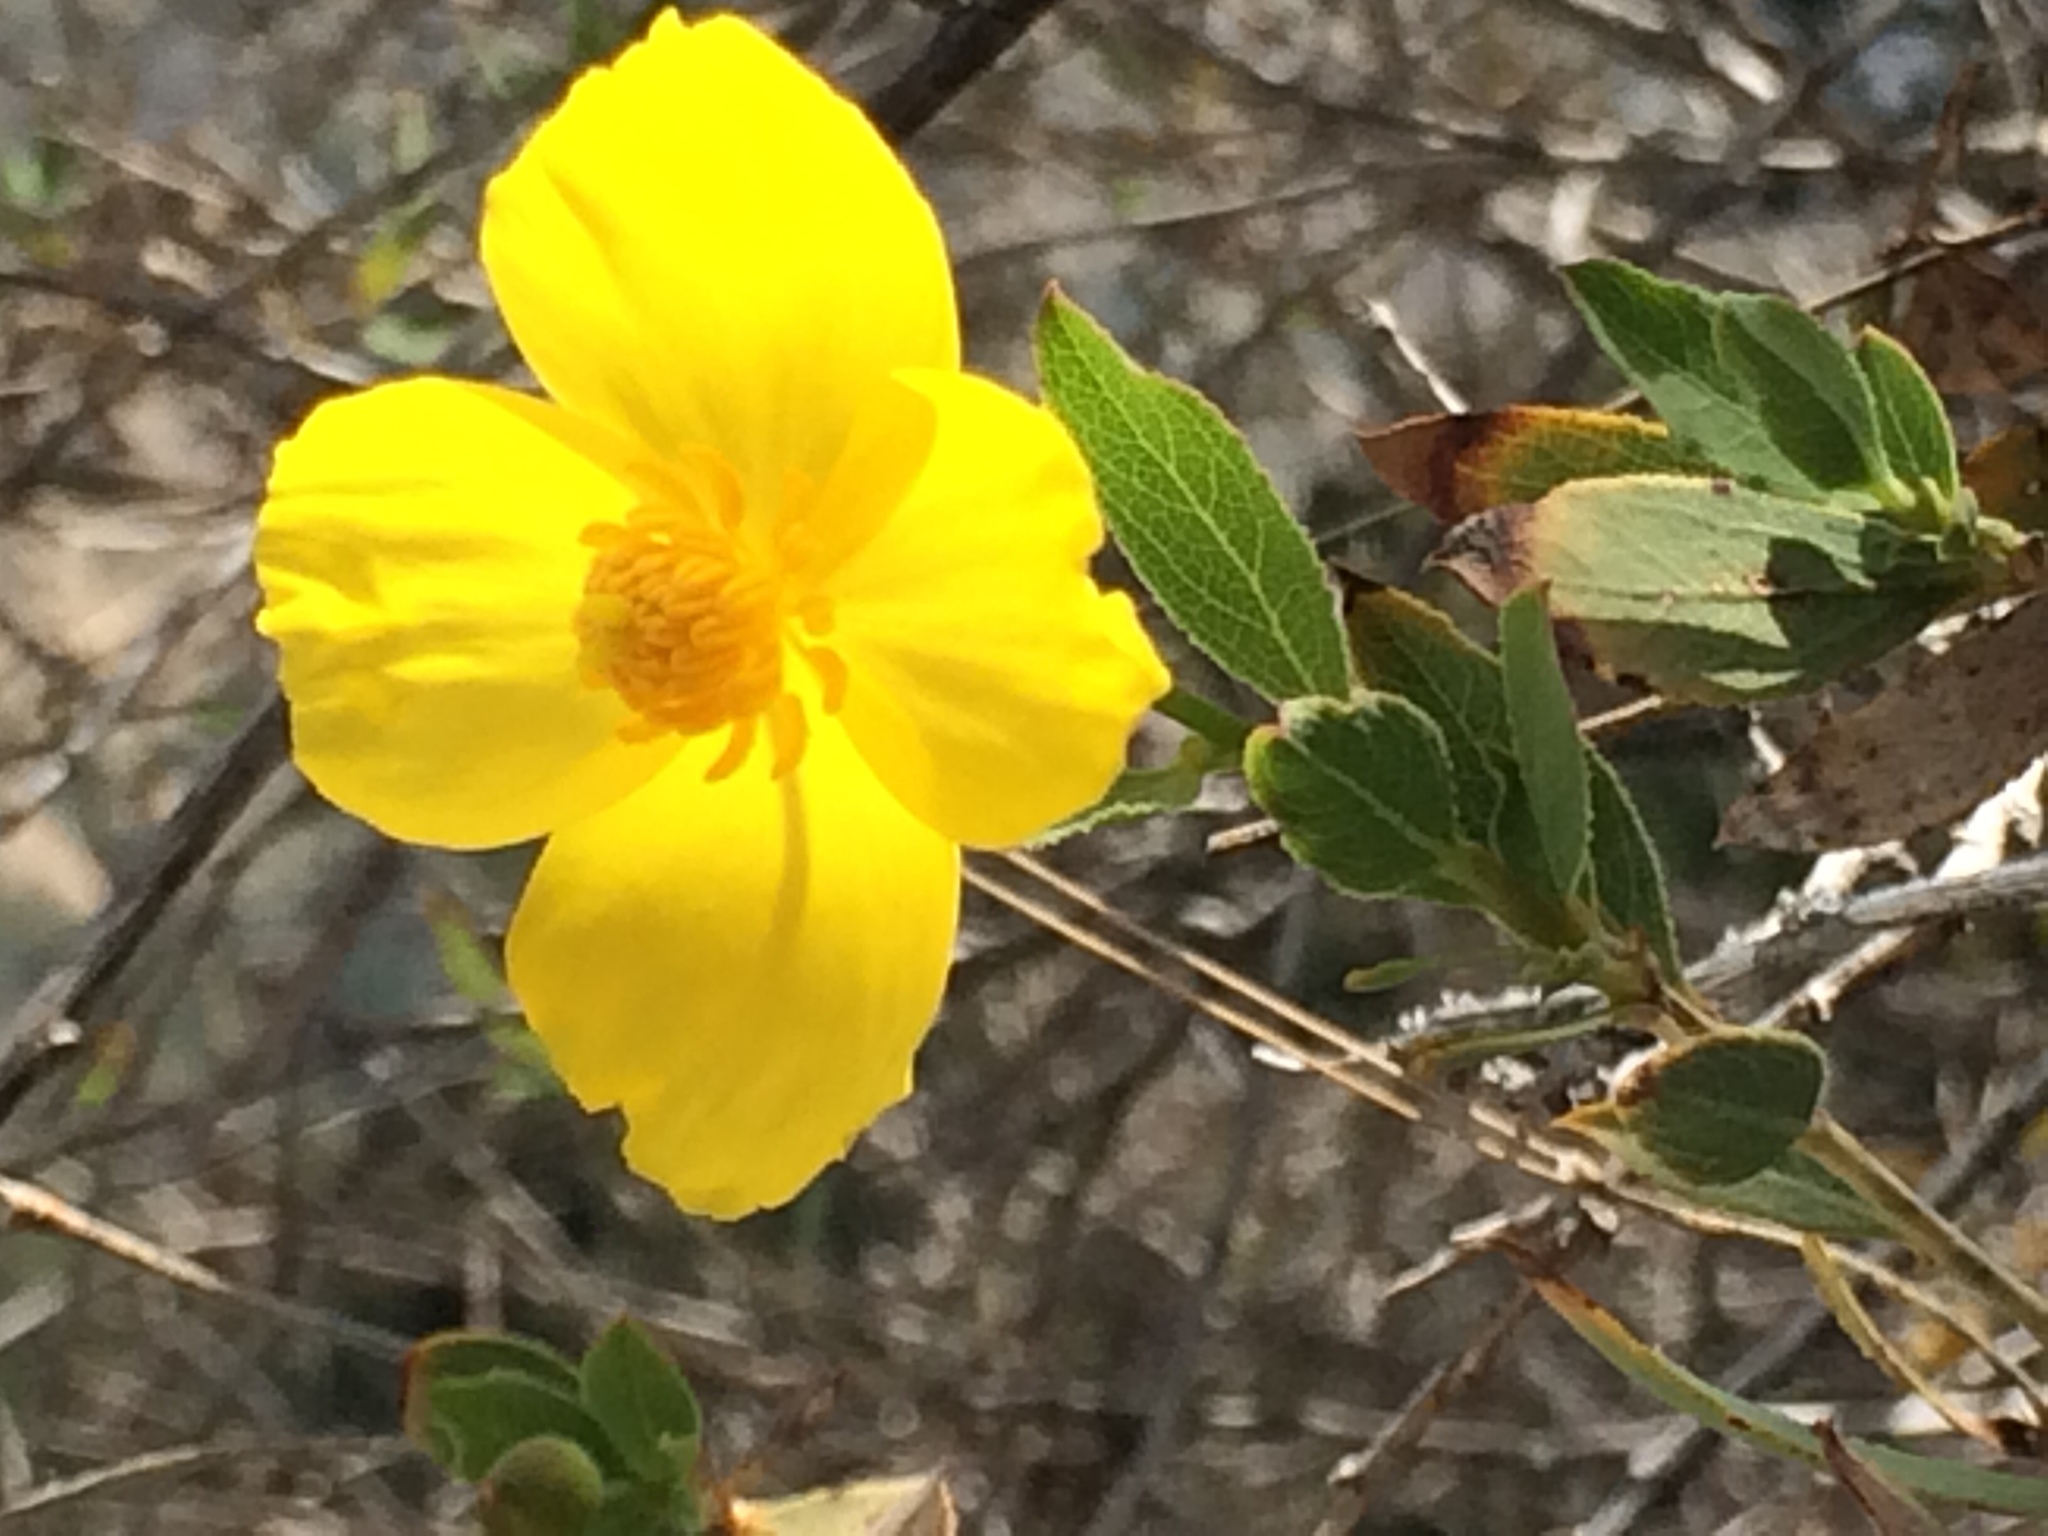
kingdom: Plantae
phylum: Tracheophyta
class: Magnoliopsida
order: Ranunculales
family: Papaveraceae
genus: Dendromecon
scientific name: Dendromecon rigida
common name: Tree poppy
